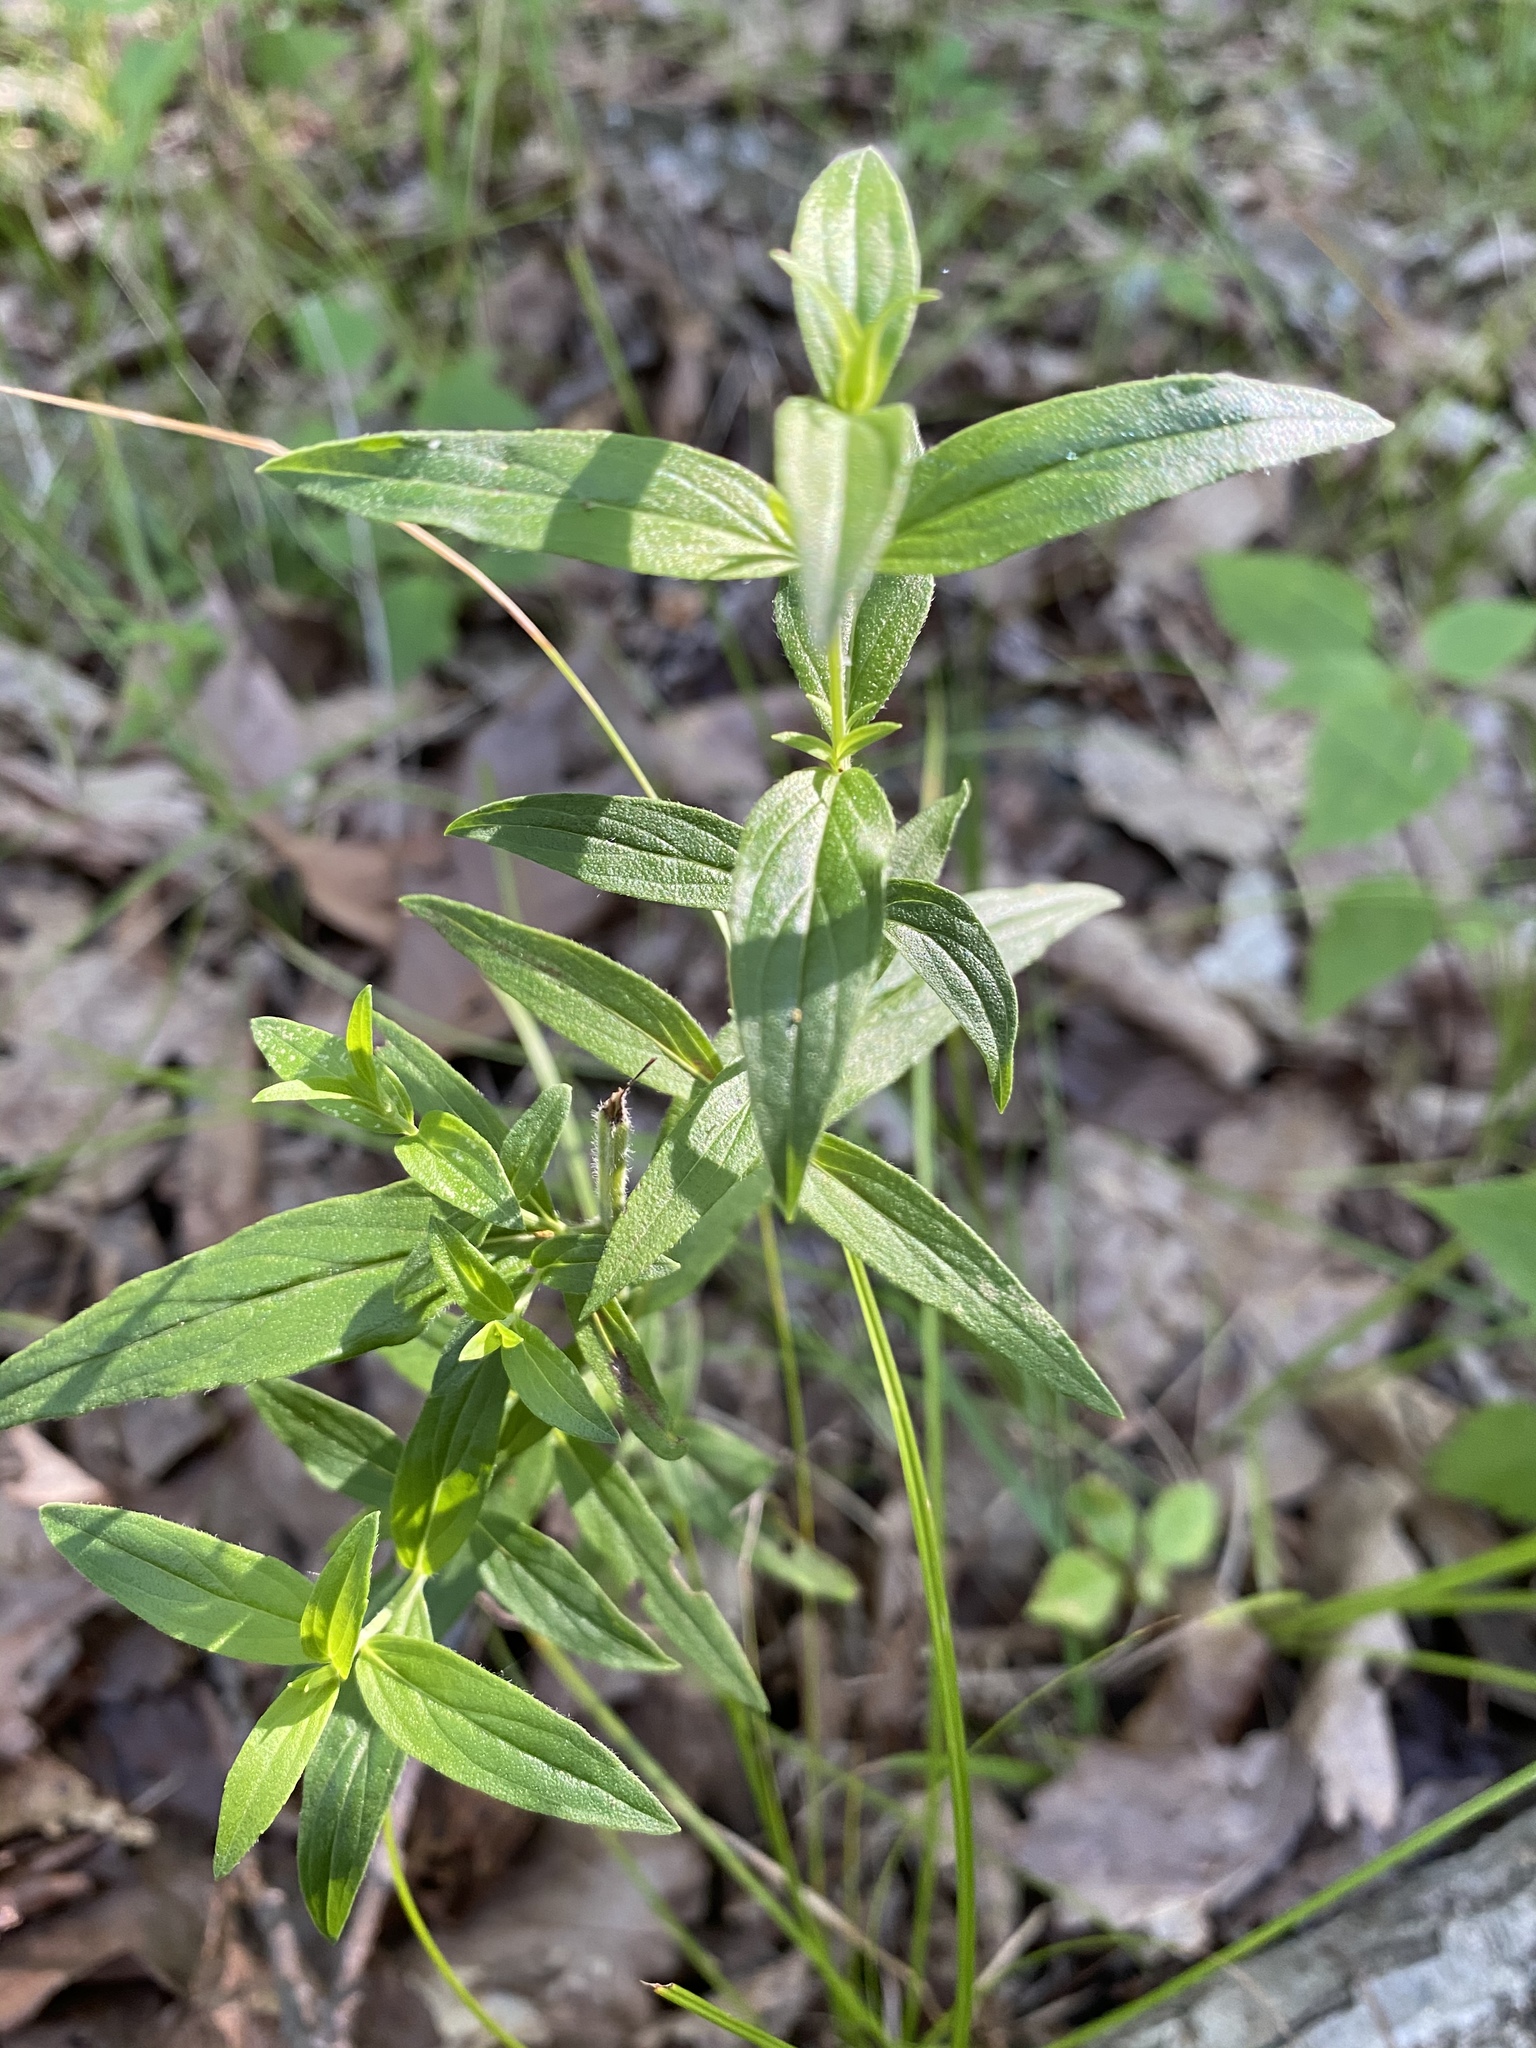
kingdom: Plantae
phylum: Tracheophyta
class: Magnoliopsida
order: Lamiales
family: Lamiaceae
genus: Pycnanthemum
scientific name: Pycnanthemum torreyi
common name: Torrey's mountain-mint
